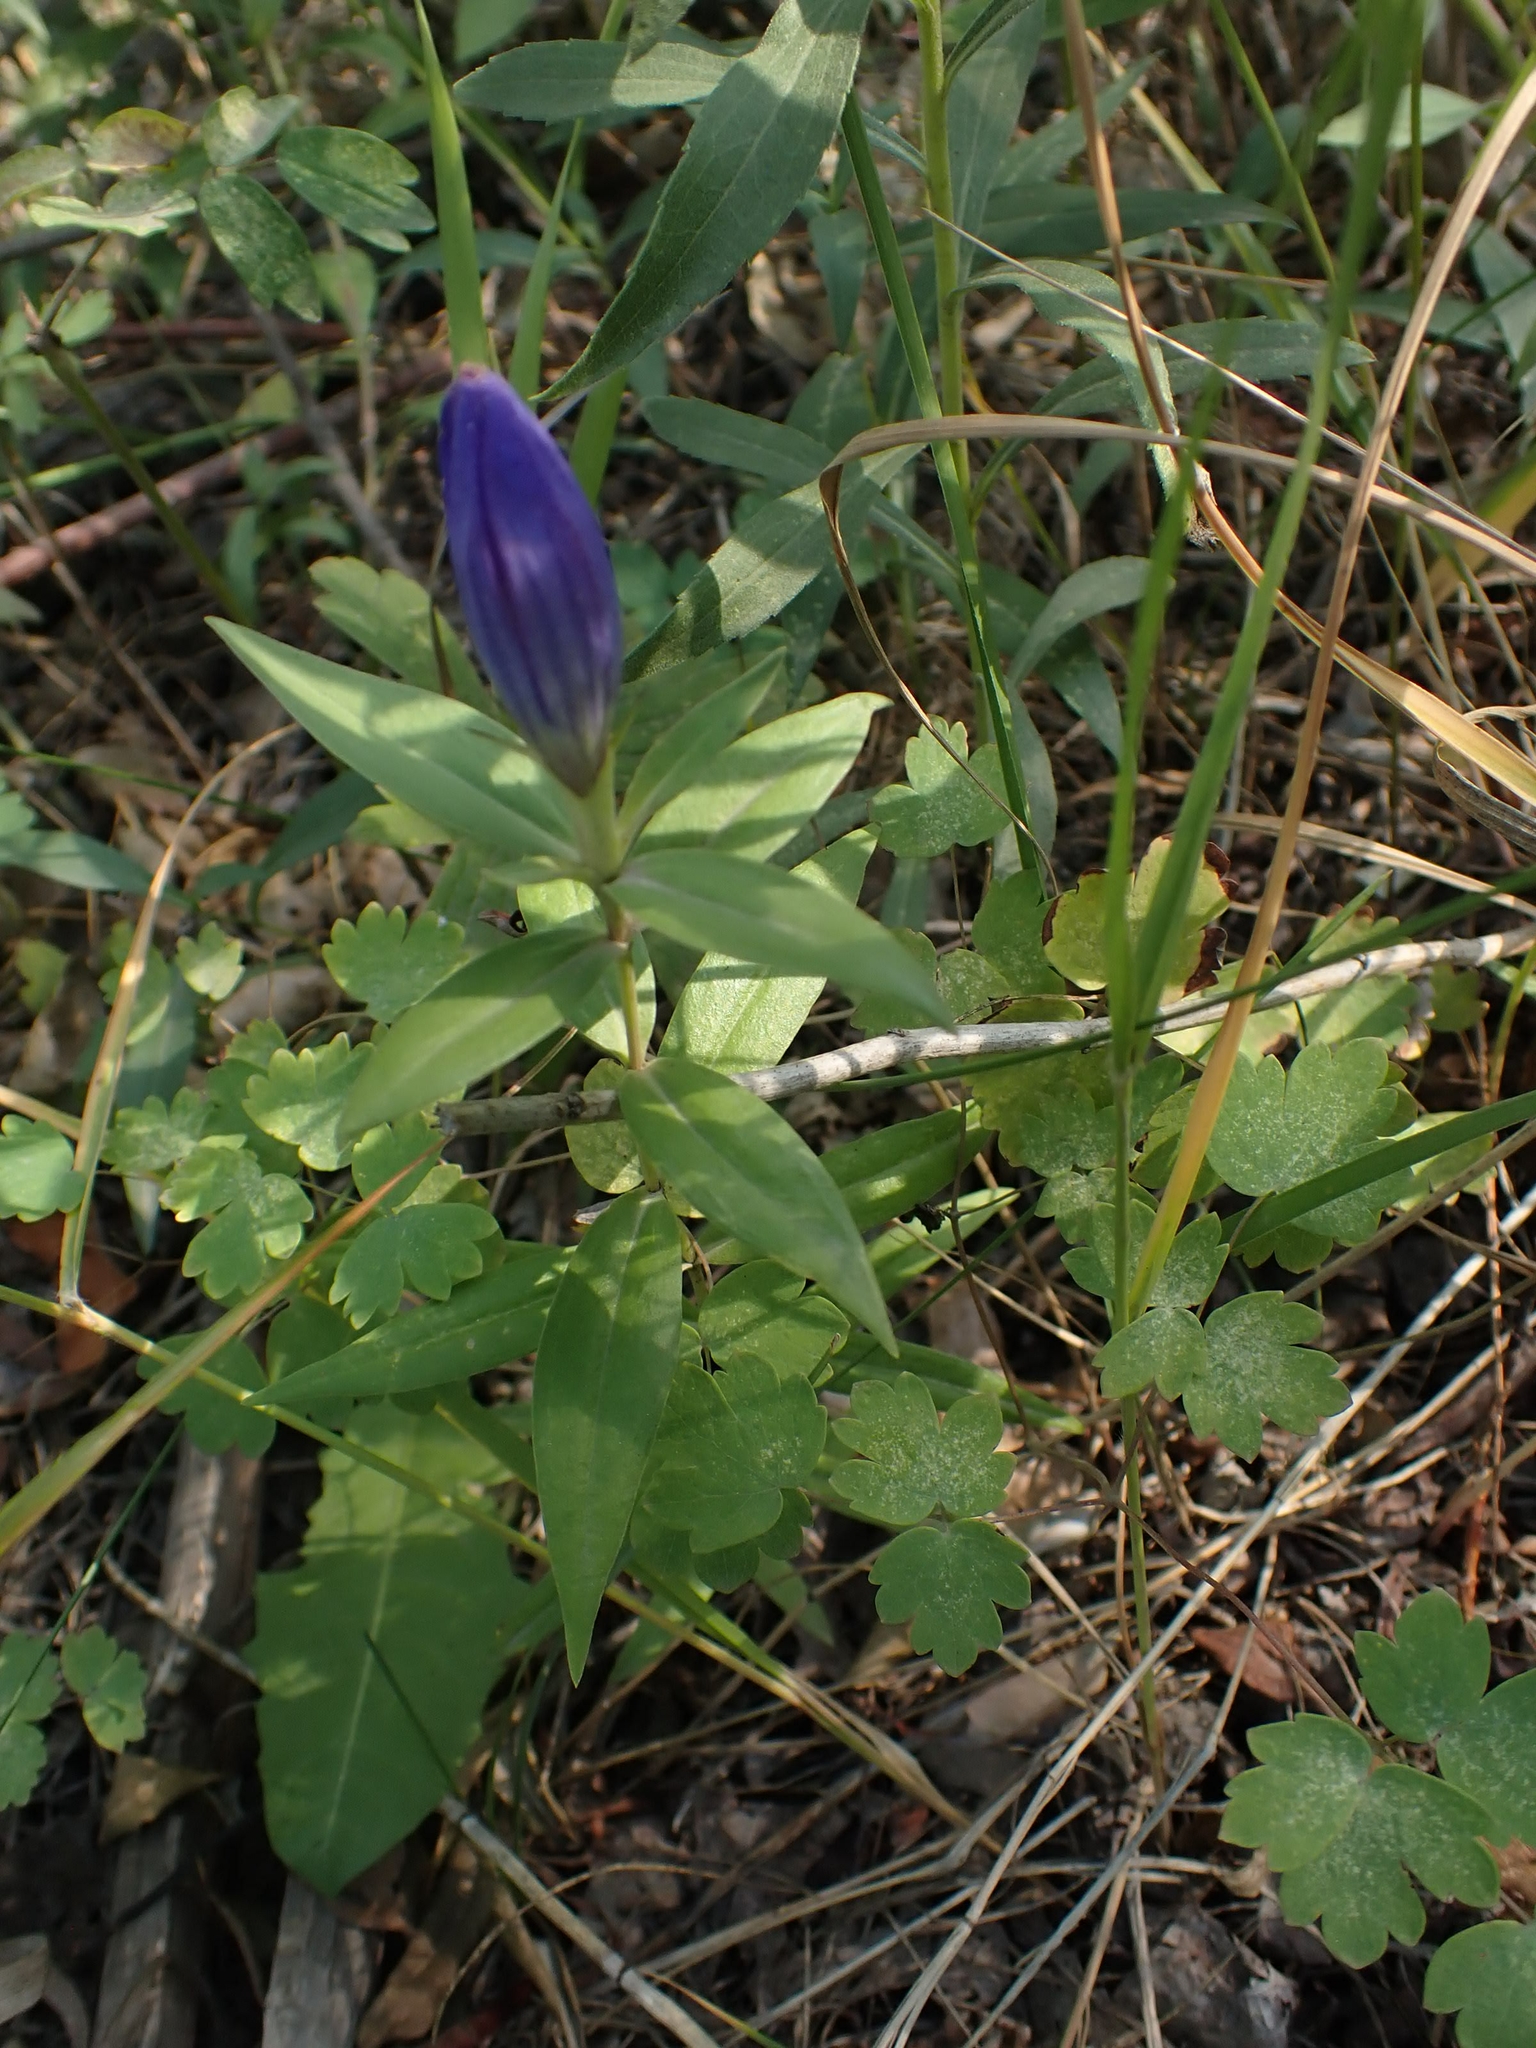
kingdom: Plantae
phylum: Tracheophyta
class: Magnoliopsida
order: Gentianales
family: Gentianaceae
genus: Gentiana
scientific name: Gentiana andrewsii
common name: Bottle gentian
